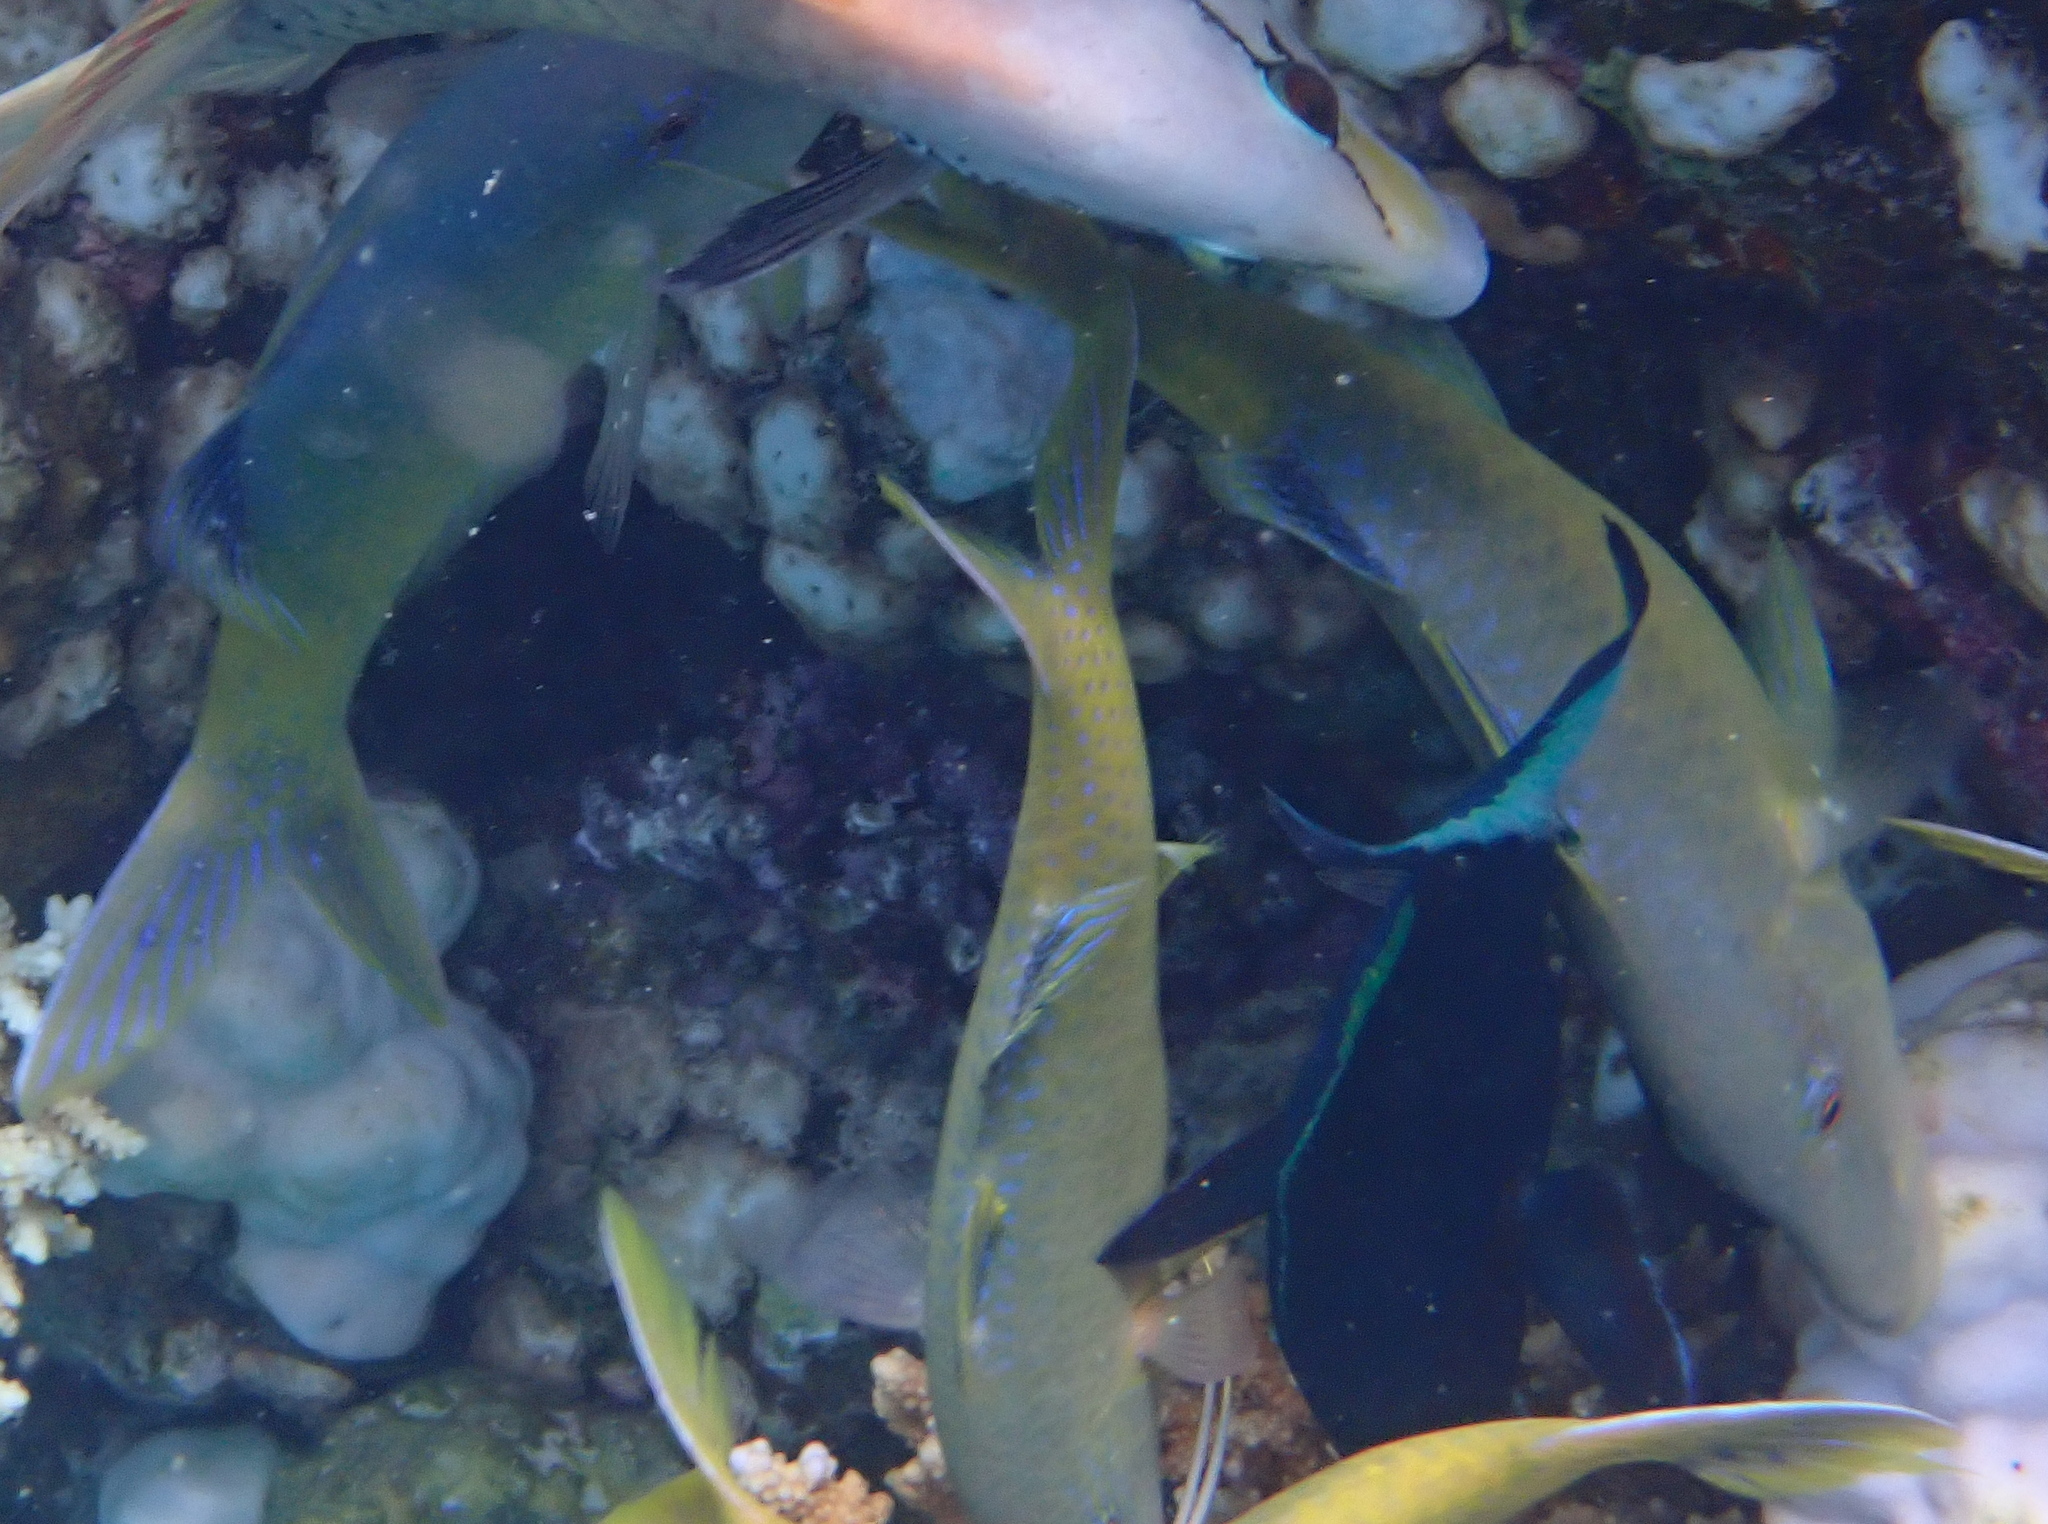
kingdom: Animalia
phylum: Chordata
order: Perciformes
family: Mullidae
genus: Parupeneus
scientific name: Parupeneus cyclostomus
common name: Goldsaddle goatfish
